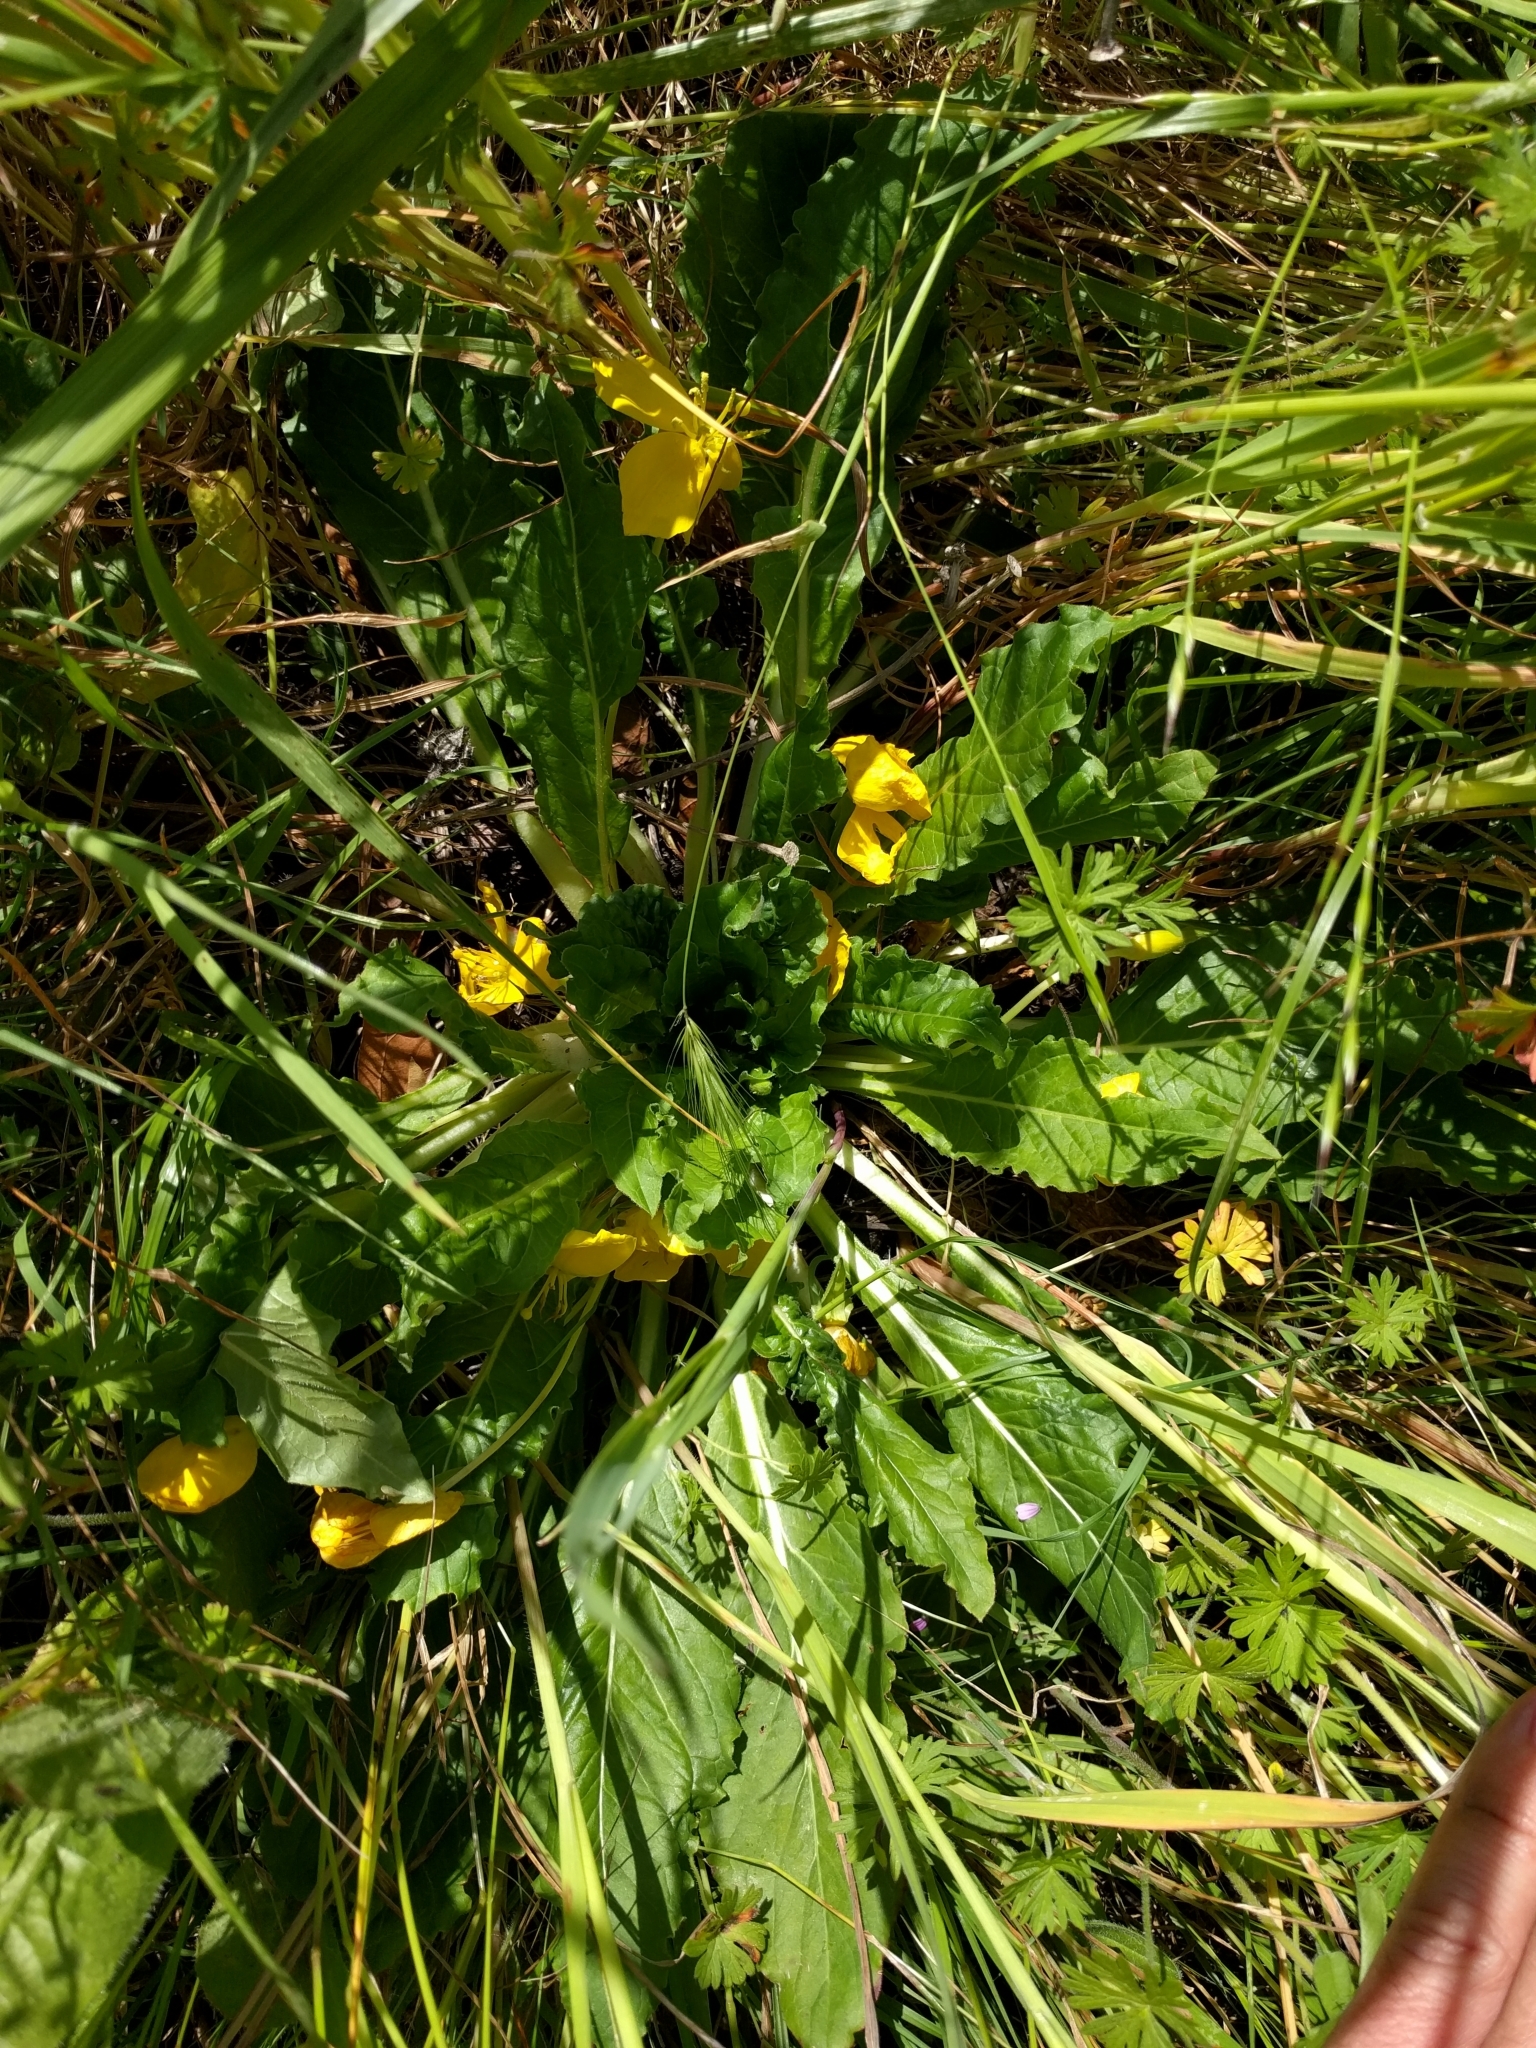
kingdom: Plantae
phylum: Tracheophyta
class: Magnoliopsida
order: Myrtales
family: Onagraceae
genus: Taraxia
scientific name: Taraxia ovata
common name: Goldeneggs
